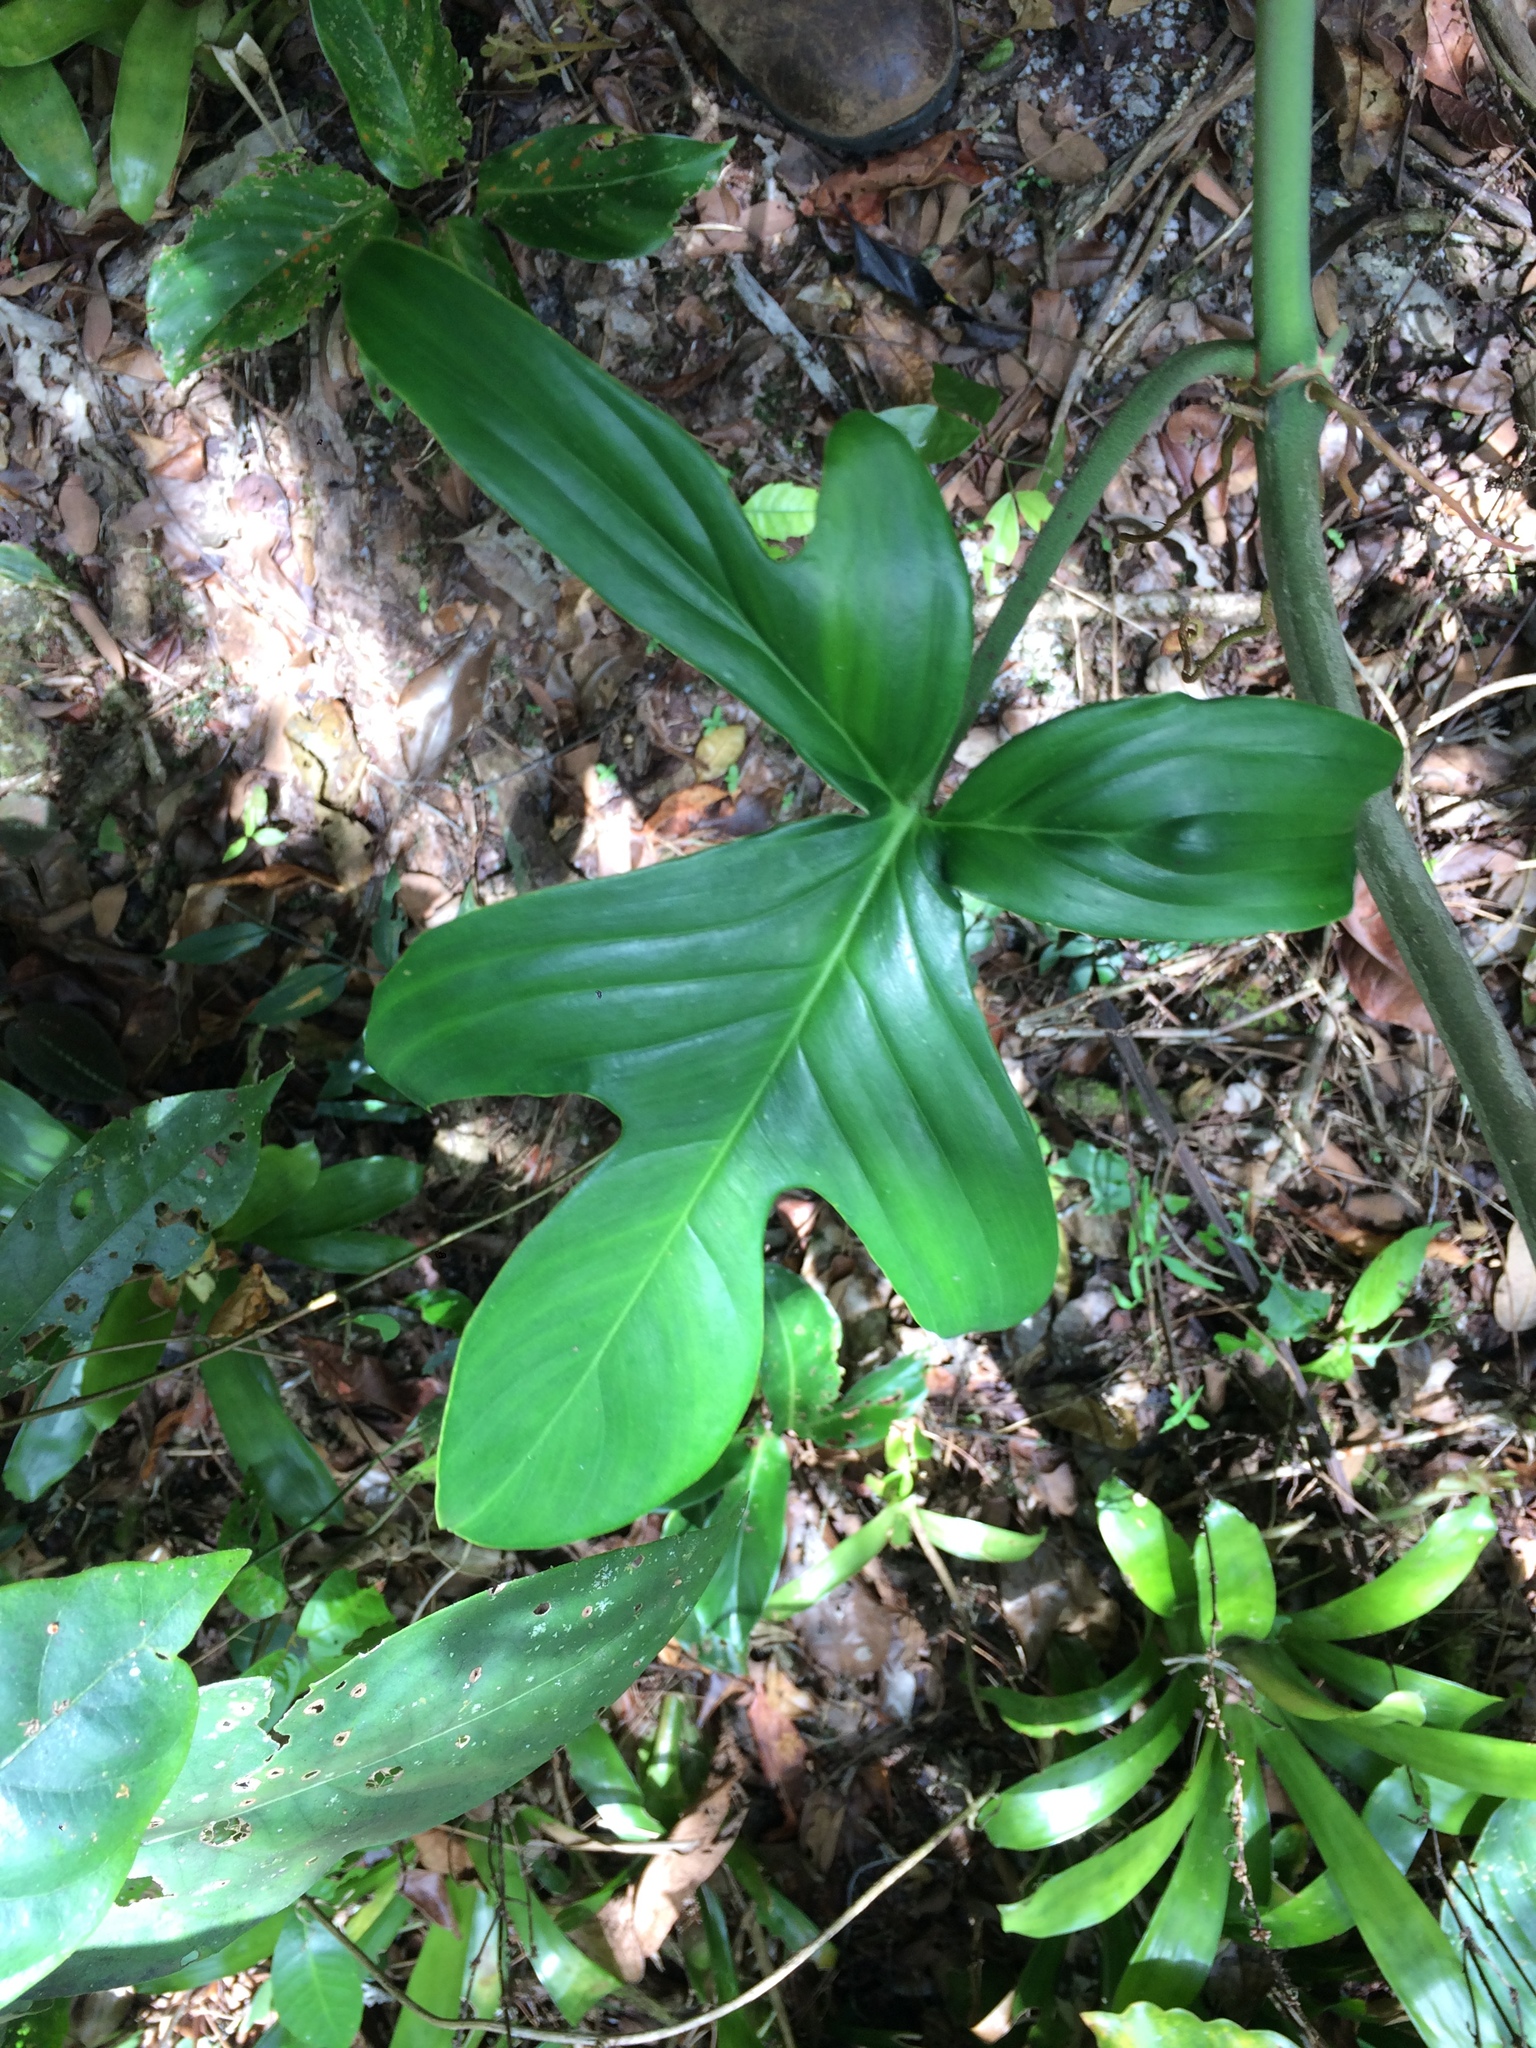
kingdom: Plantae
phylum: Tracheophyta
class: Liliopsida
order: Alismatales
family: Araceae
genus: Philodendron
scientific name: Philodendron pedatum
